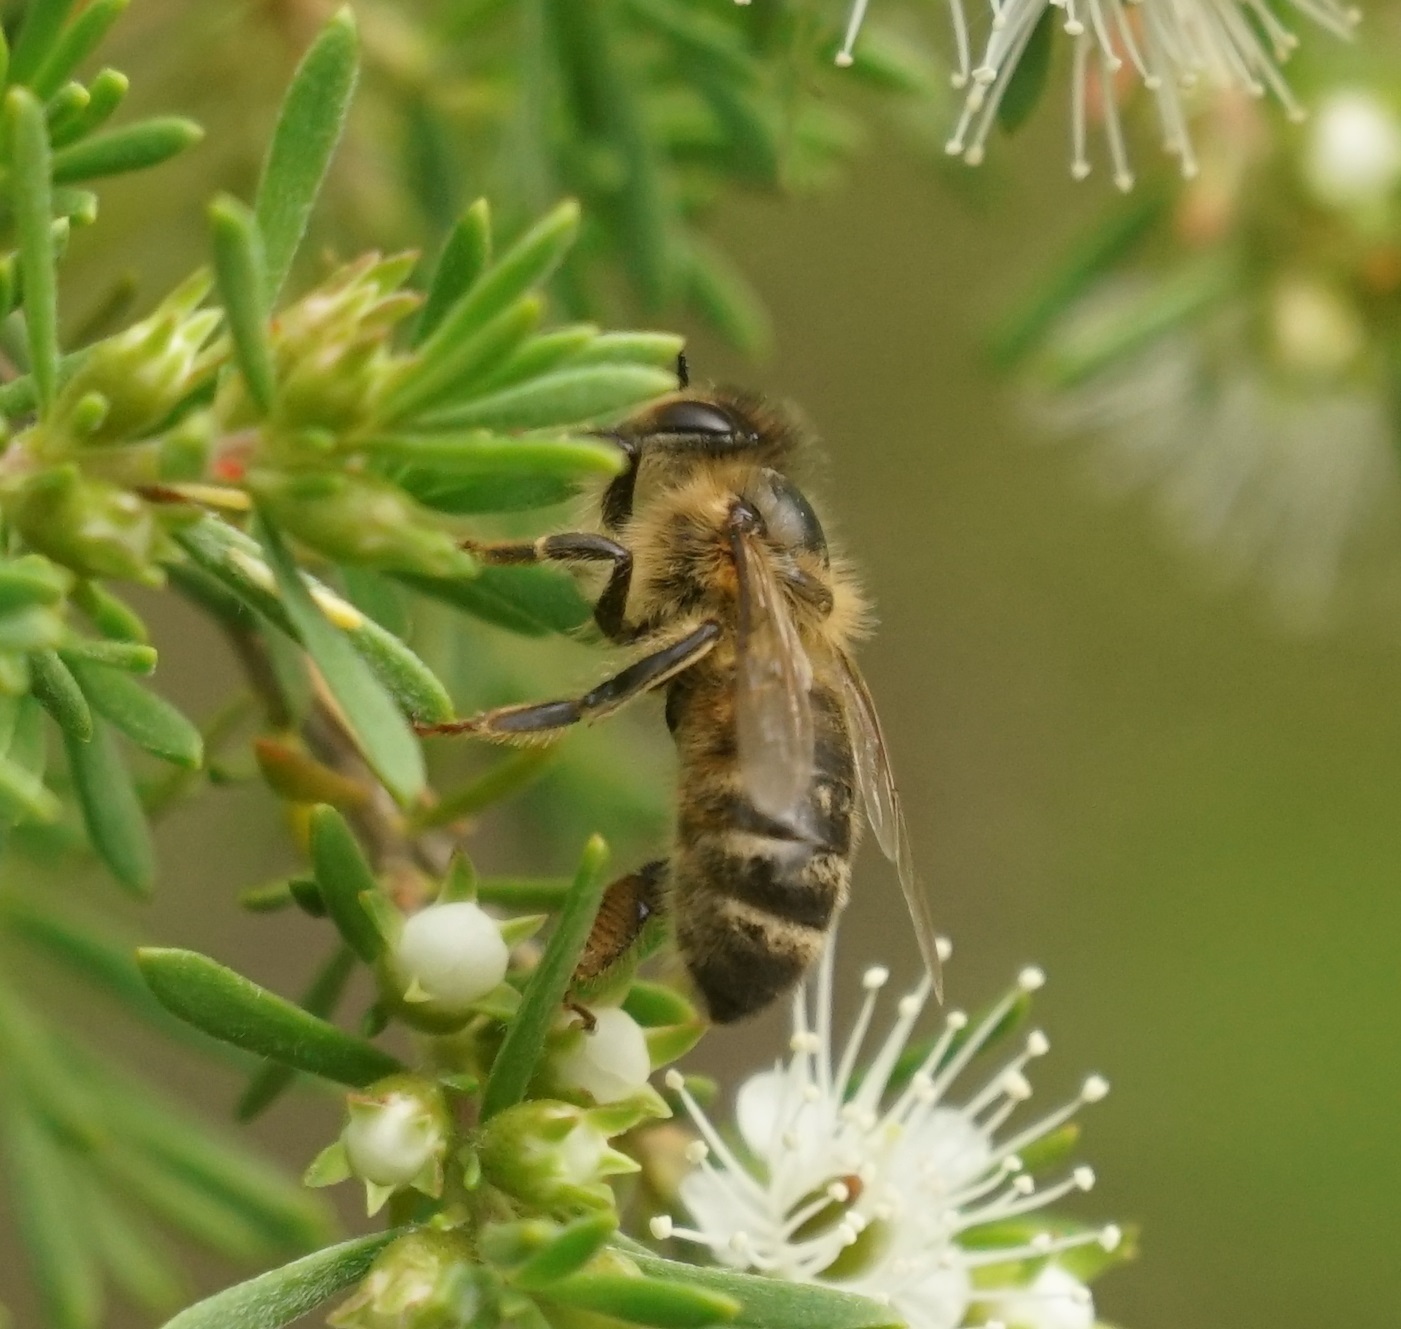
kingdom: Animalia
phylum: Arthropoda
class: Insecta
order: Hymenoptera
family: Apidae
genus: Apis
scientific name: Apis mellifera
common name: Honey bee
